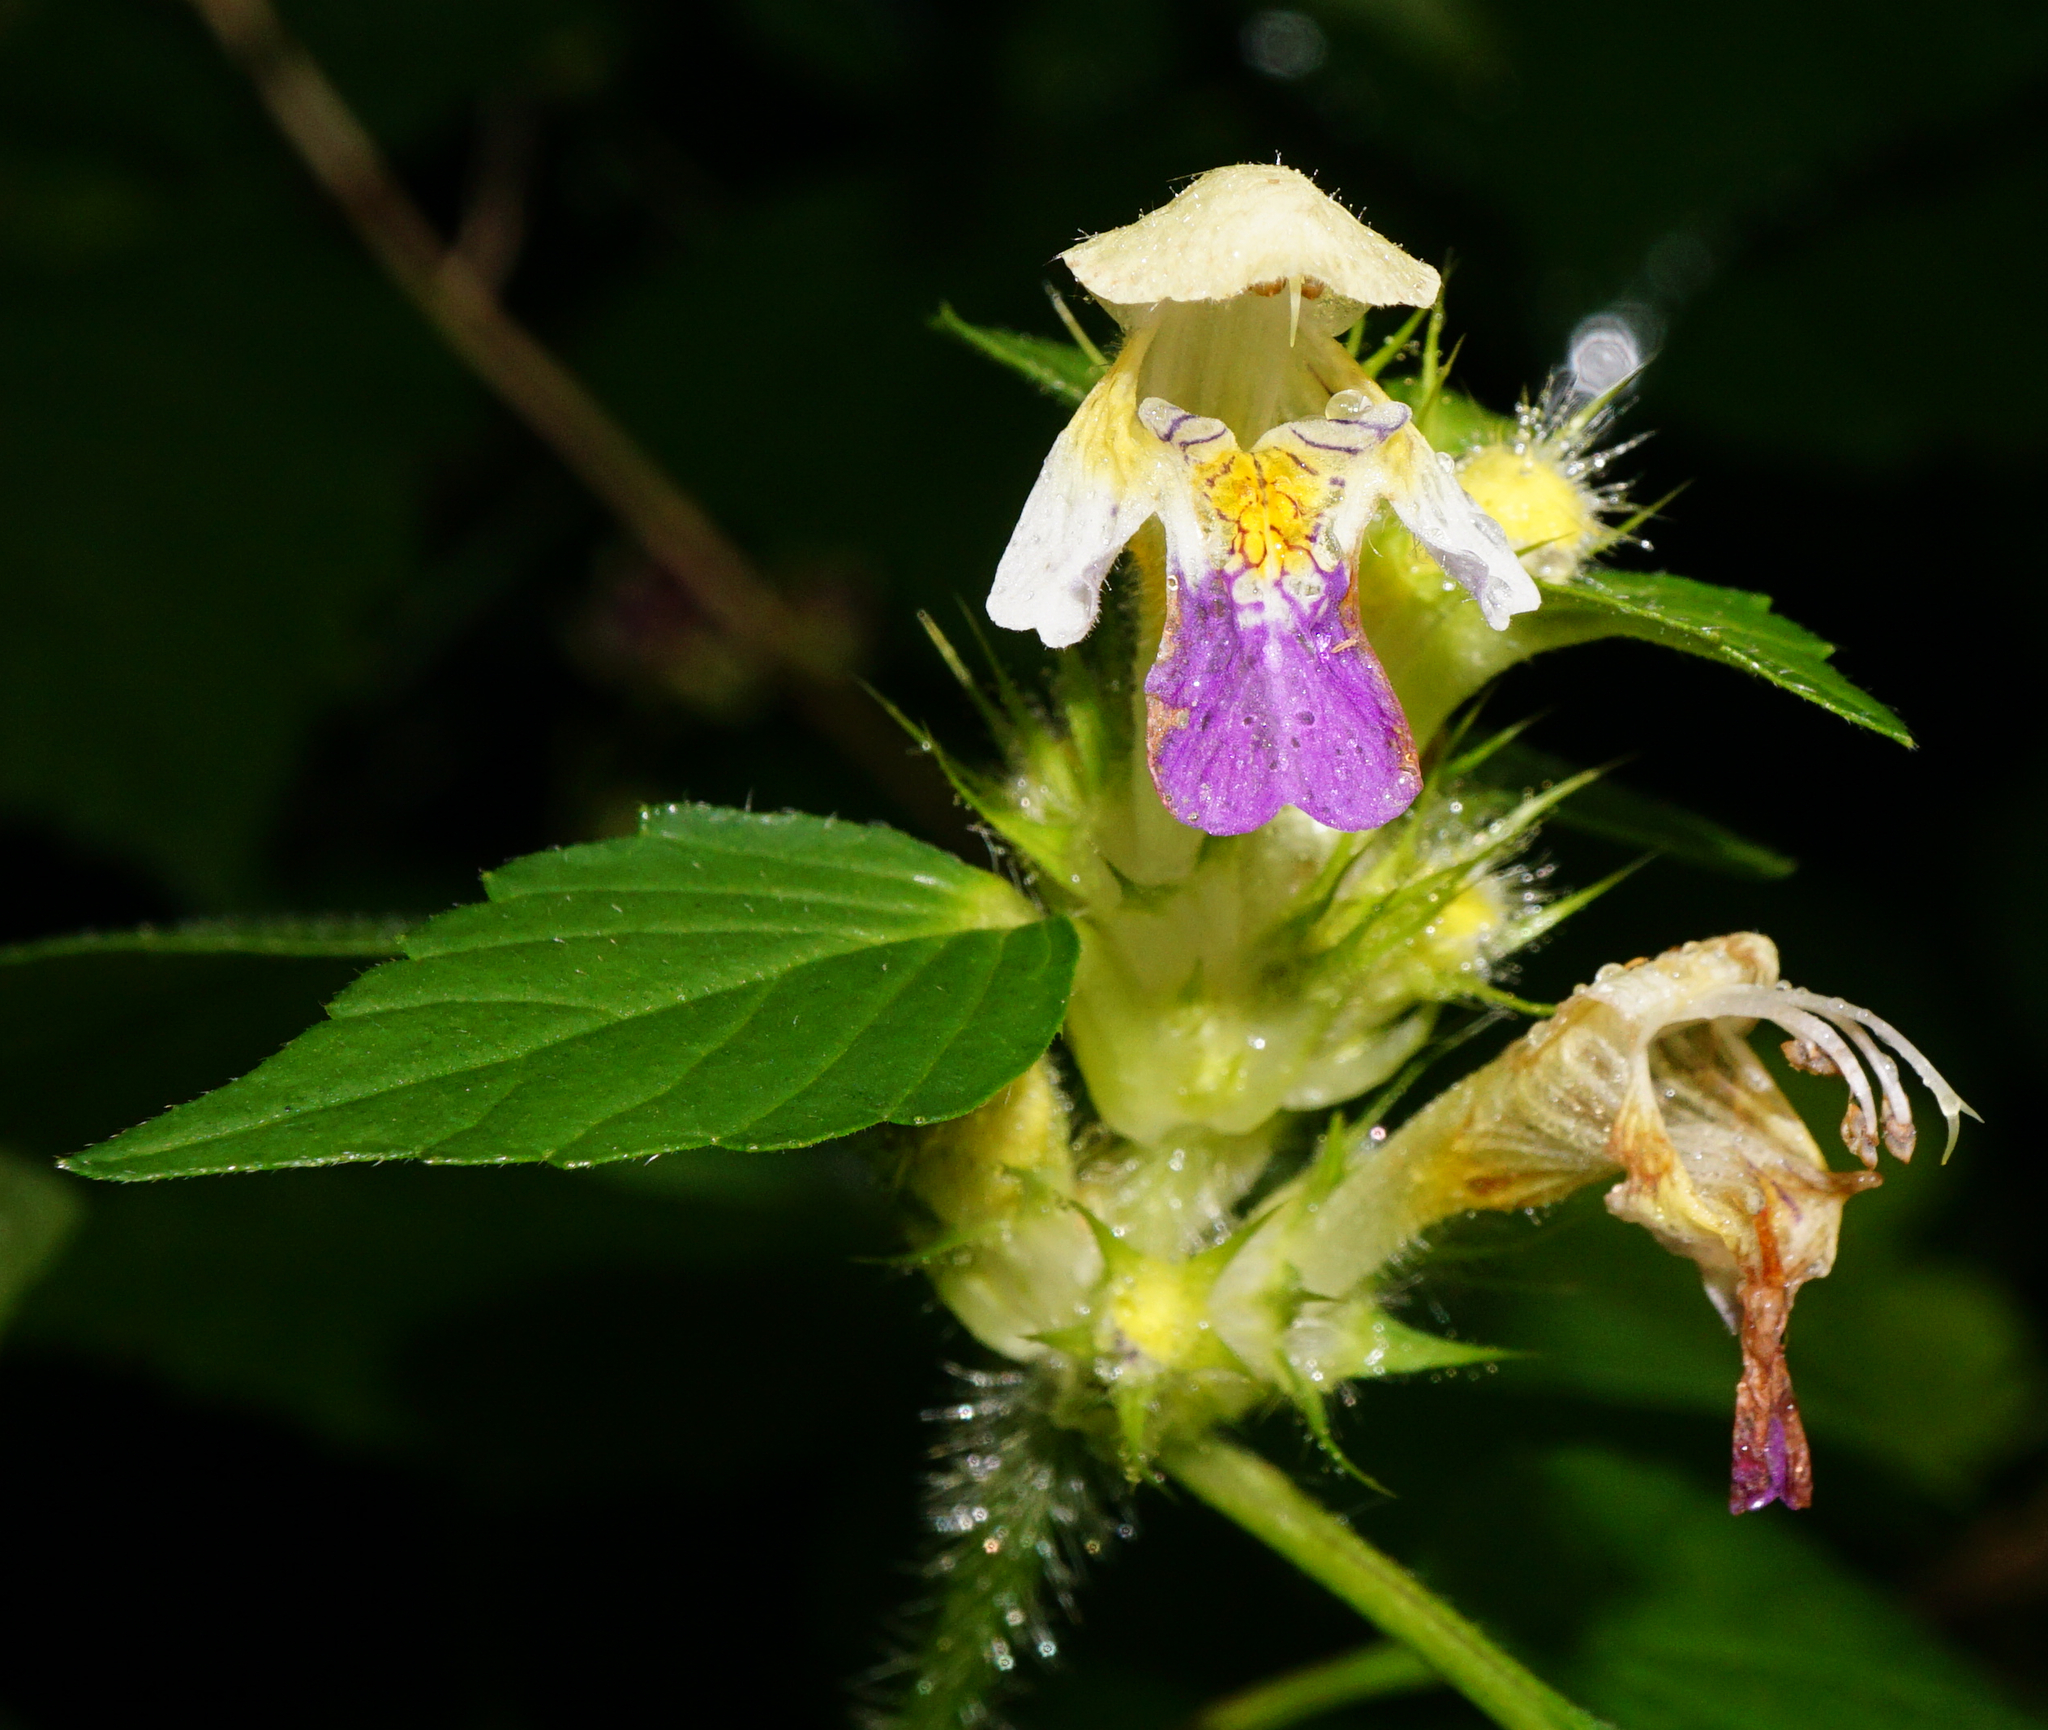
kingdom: Plantae
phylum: Tracheophyta
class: Magnoliopsida
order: Lamiales
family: Lamiaceae
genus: Galeopsis
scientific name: Galeopsis speciosa
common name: Large-flowered hemp-nettle
